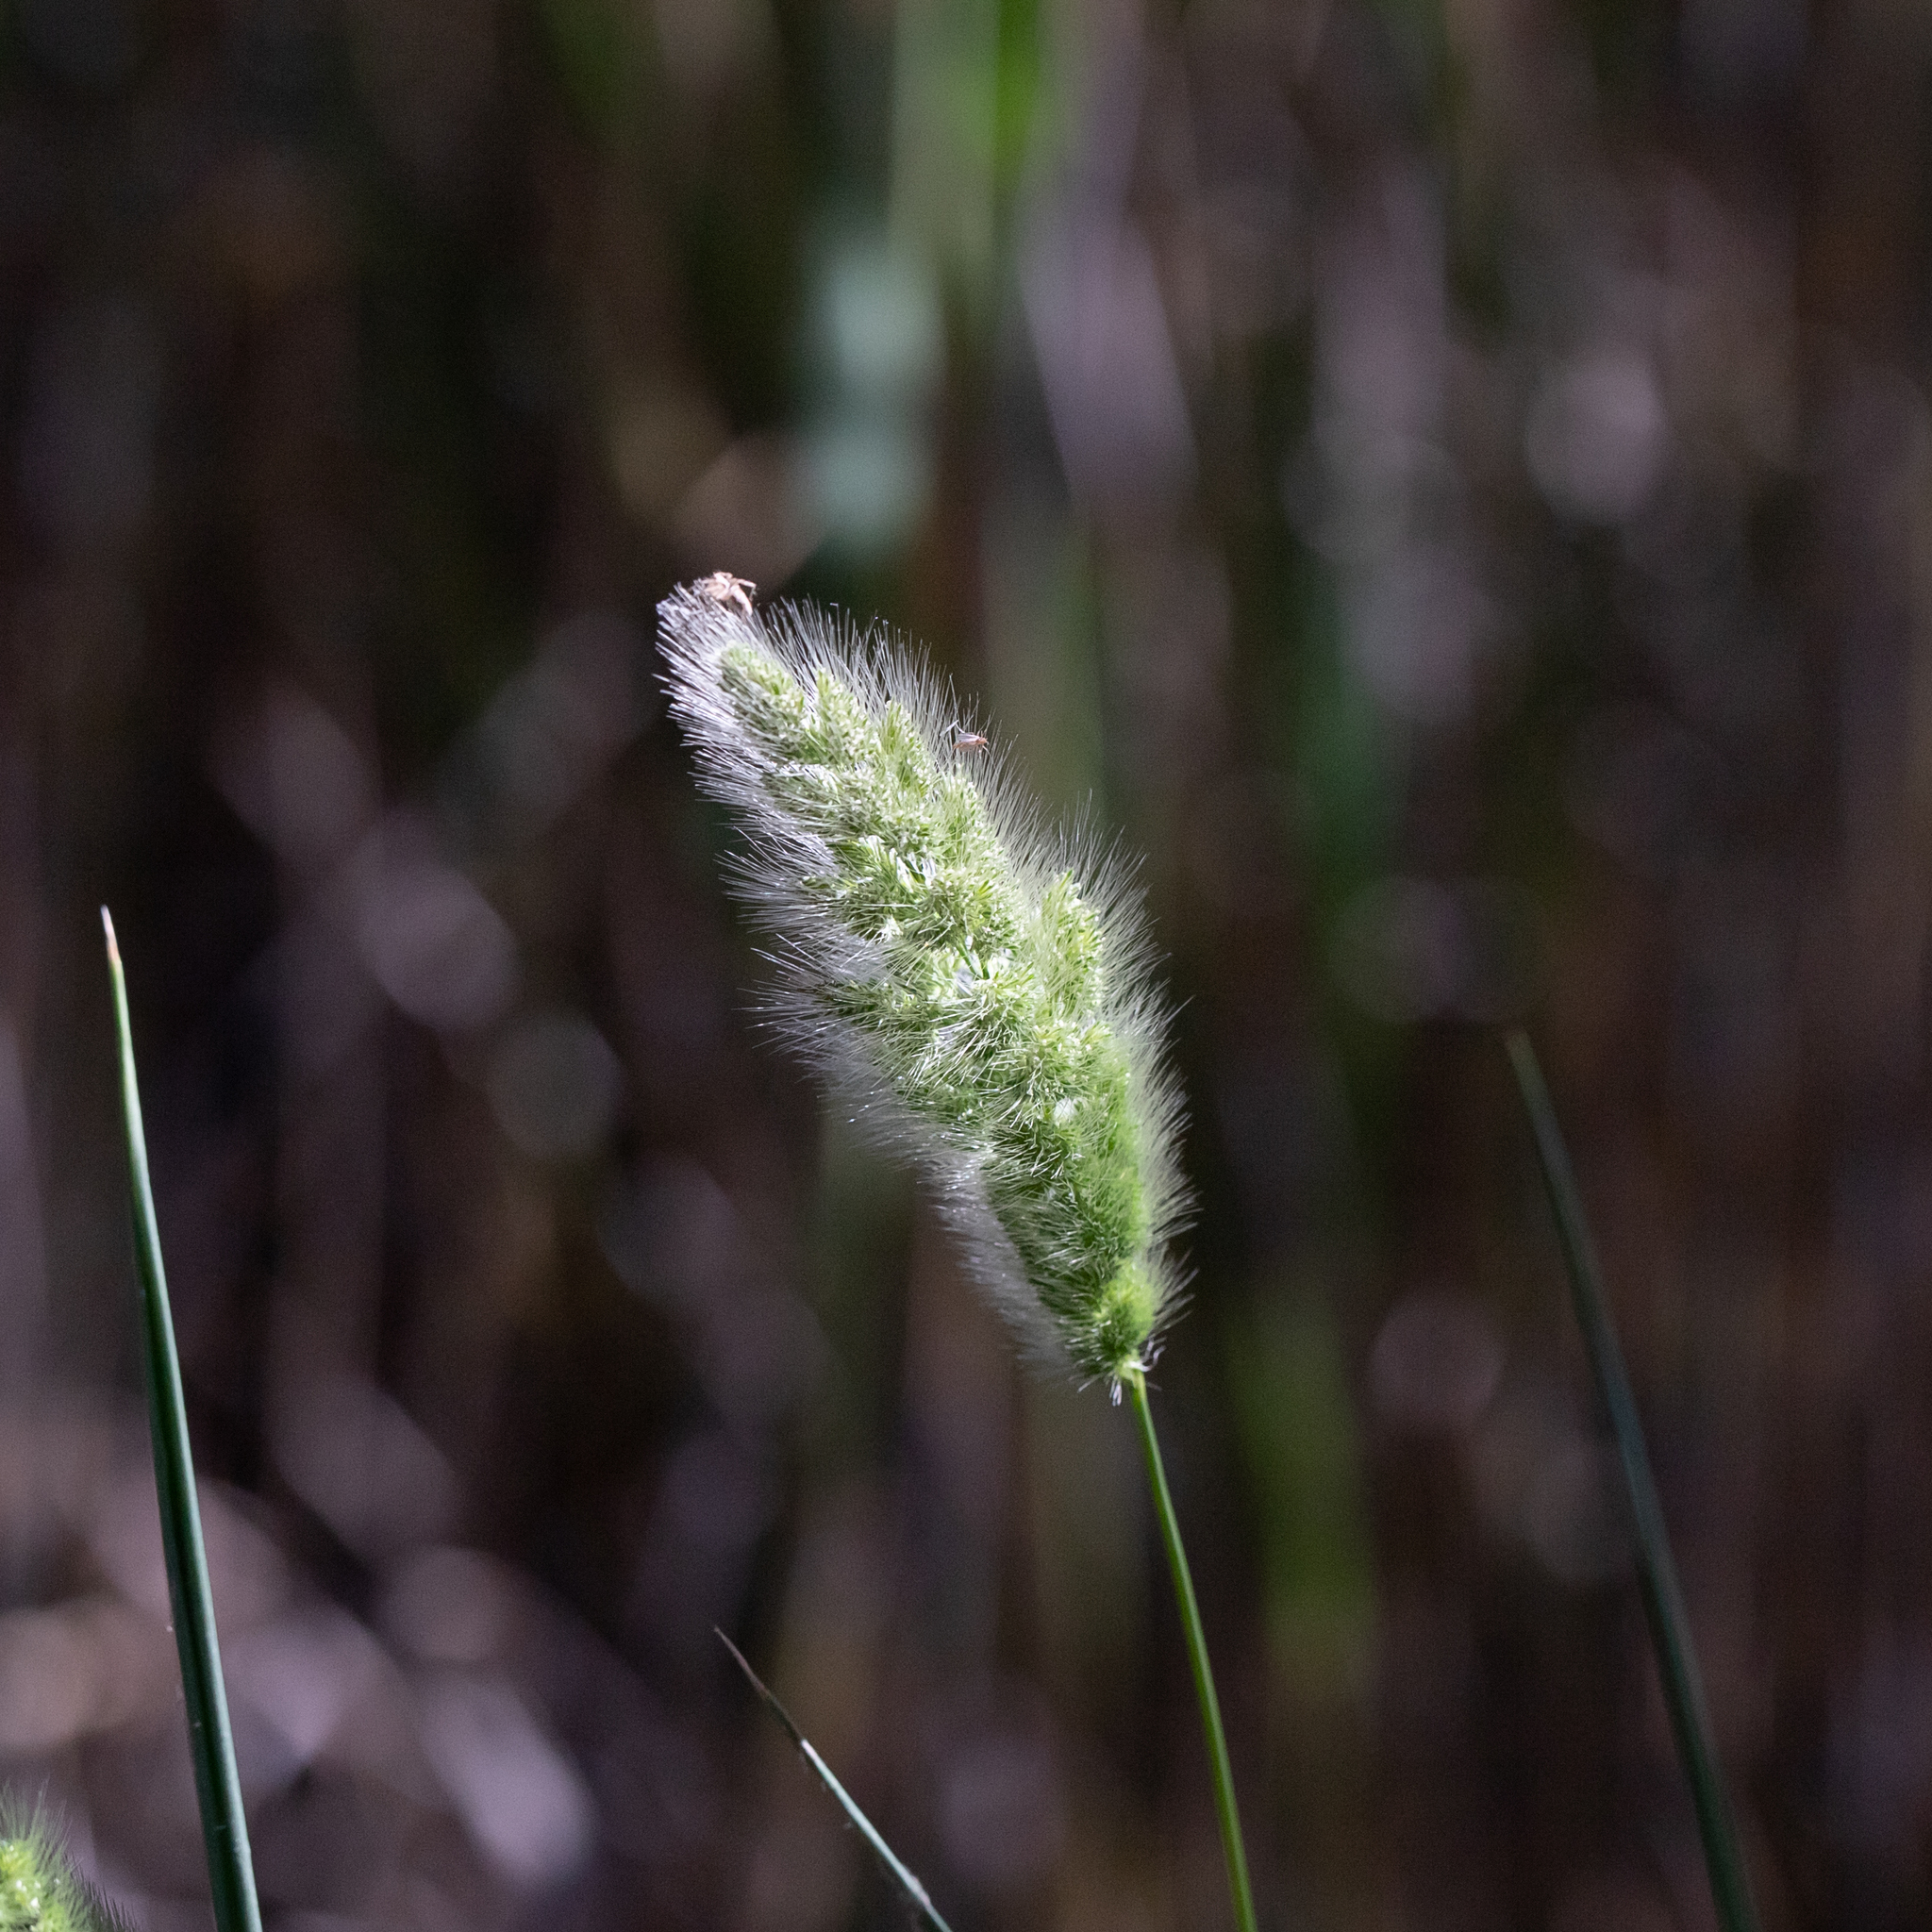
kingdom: Plantae
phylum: Tracheophyta
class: Liliopsida
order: Poales
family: Poaceae
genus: Polypogon
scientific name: Polypogon monspeliensis
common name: Annual rabbitsfoot grass
